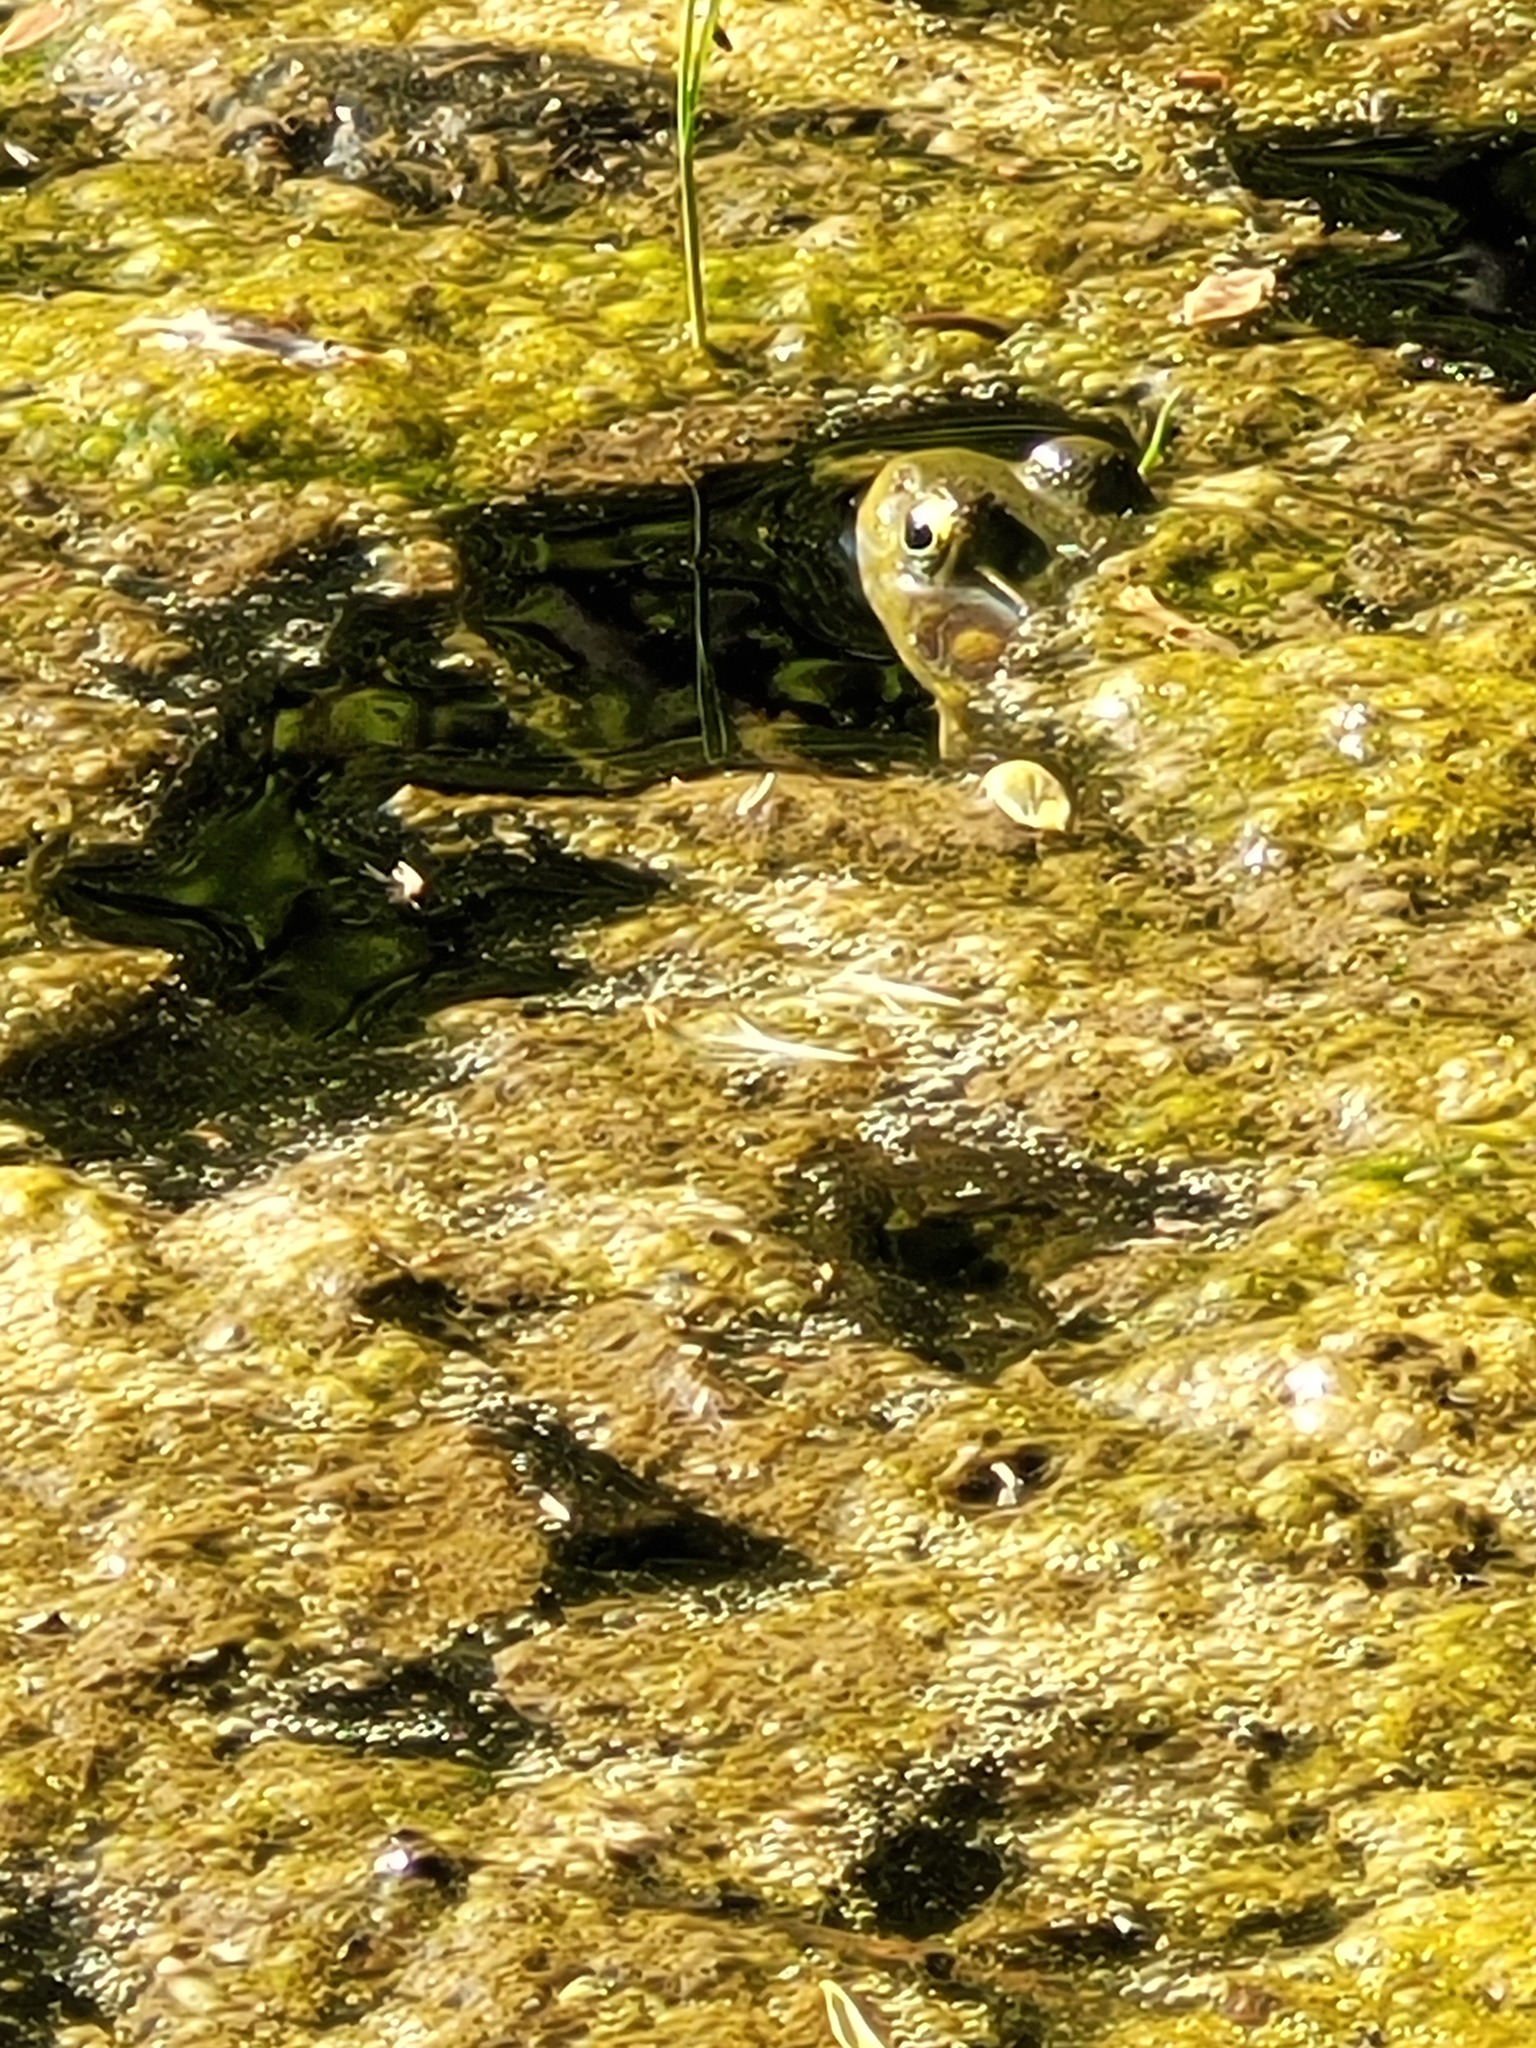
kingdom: Animalia
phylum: Chordata
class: Amphibia
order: Anura
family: Ranidae
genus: Lithobates
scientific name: Lithobates clamitans
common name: Green frog
